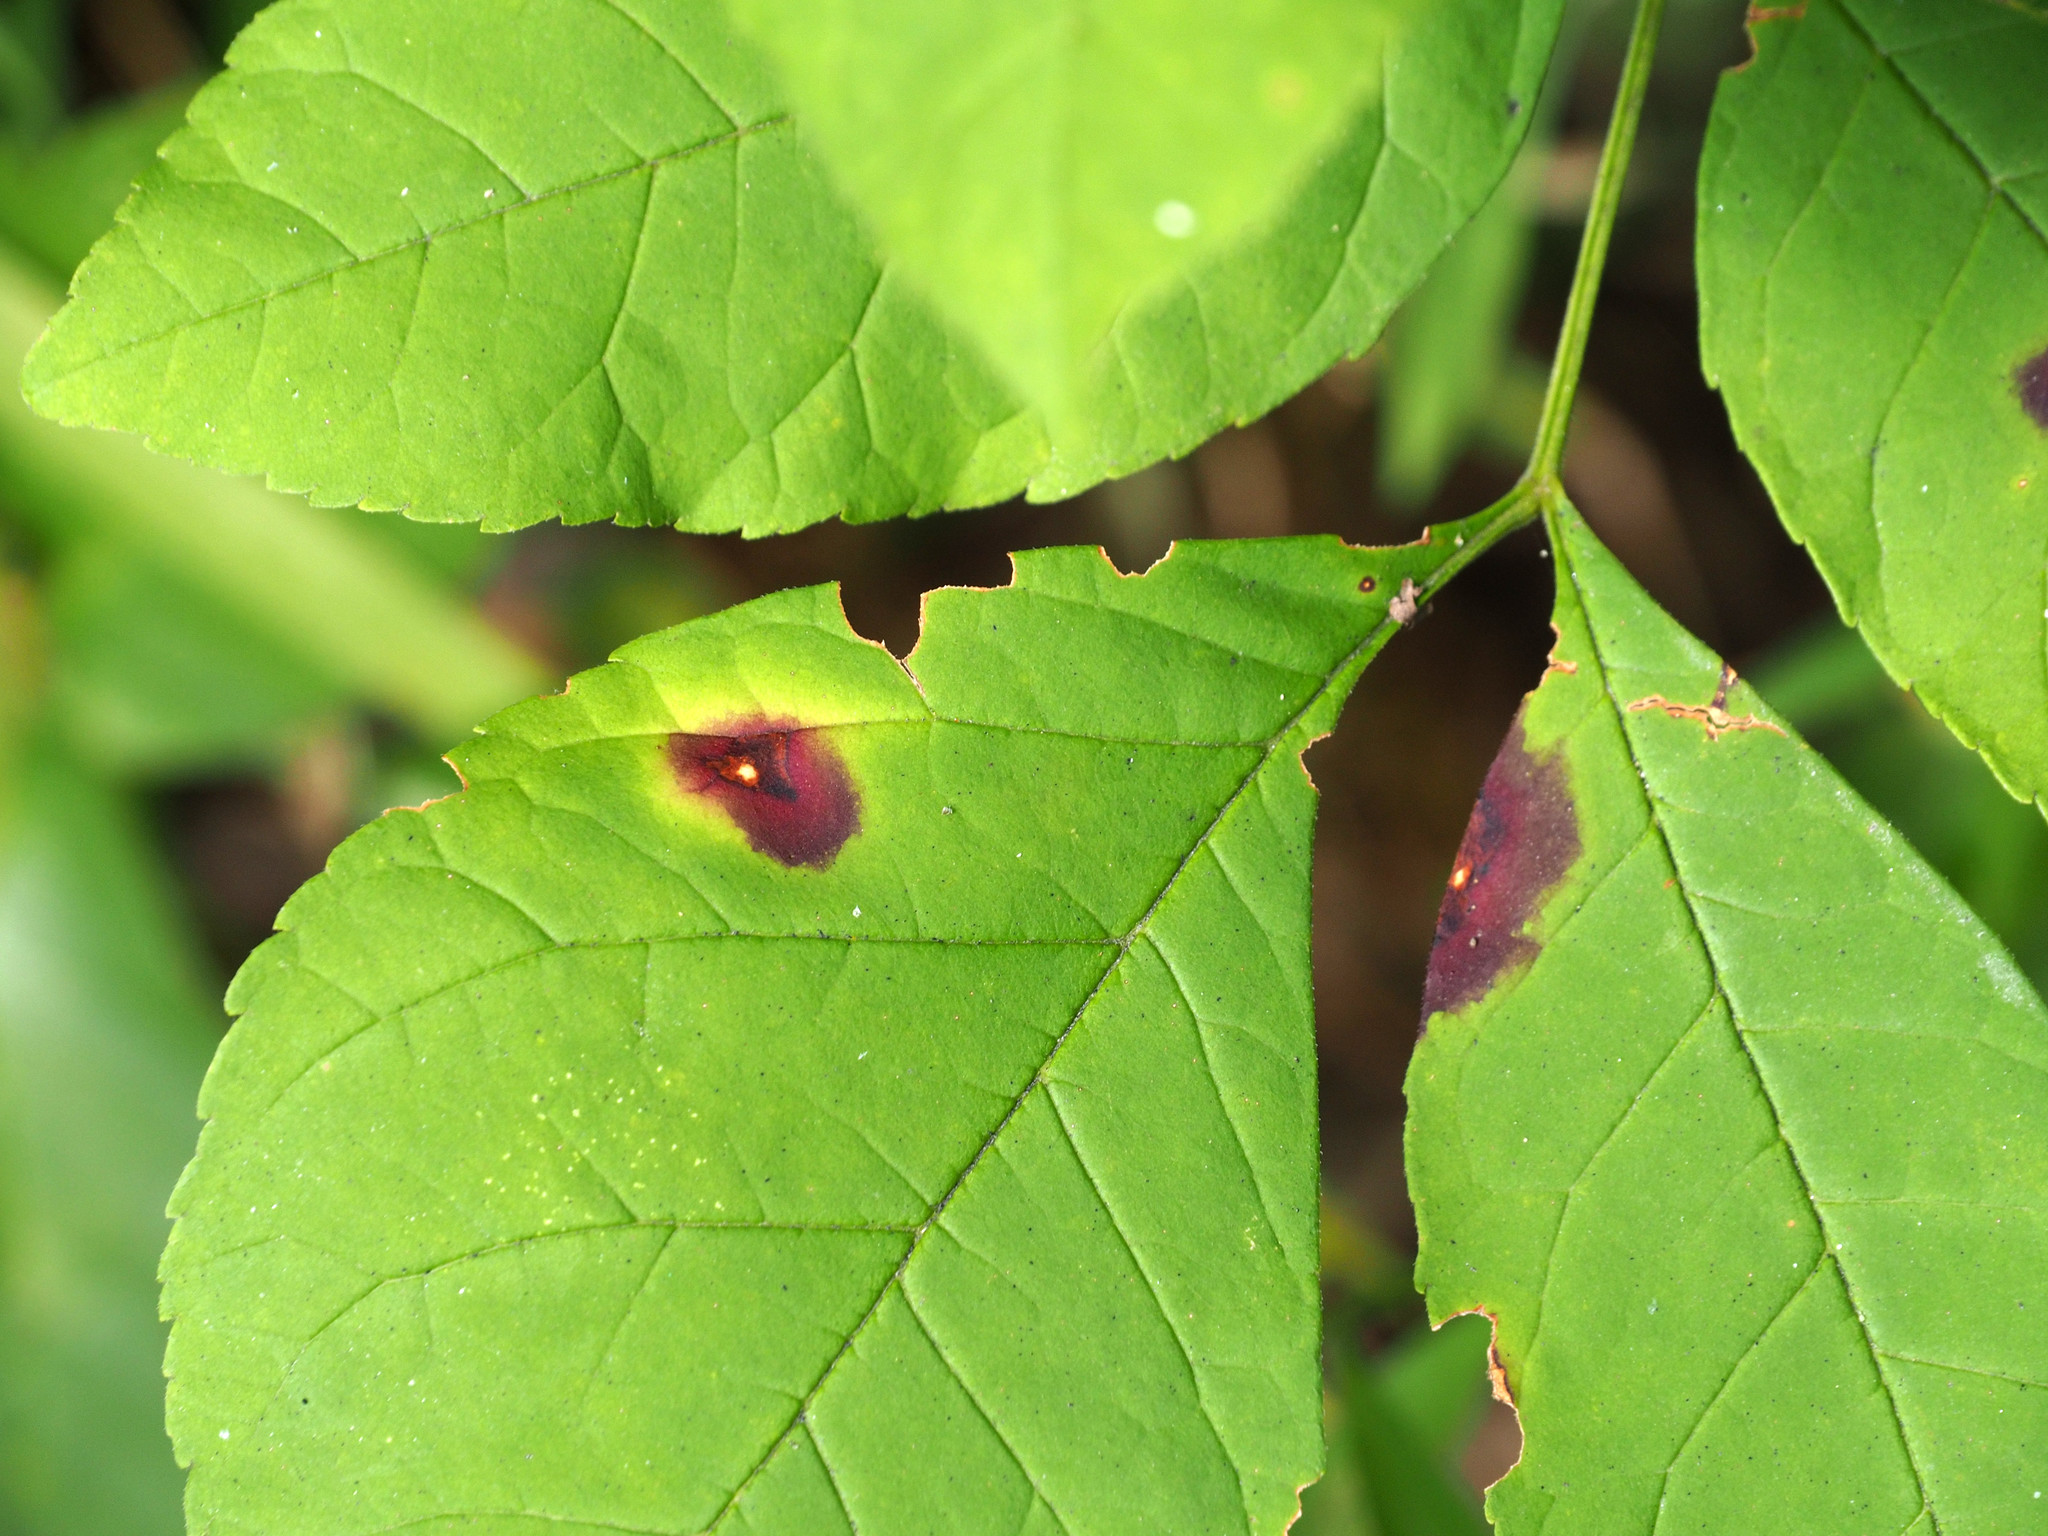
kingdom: Fungi
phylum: Ascomycota
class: Dothideomycetes
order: Mycosphaerellales
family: Mycosphaerellaceae
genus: Mycosphaerella
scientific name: Mycosphaerella fraxinicola
